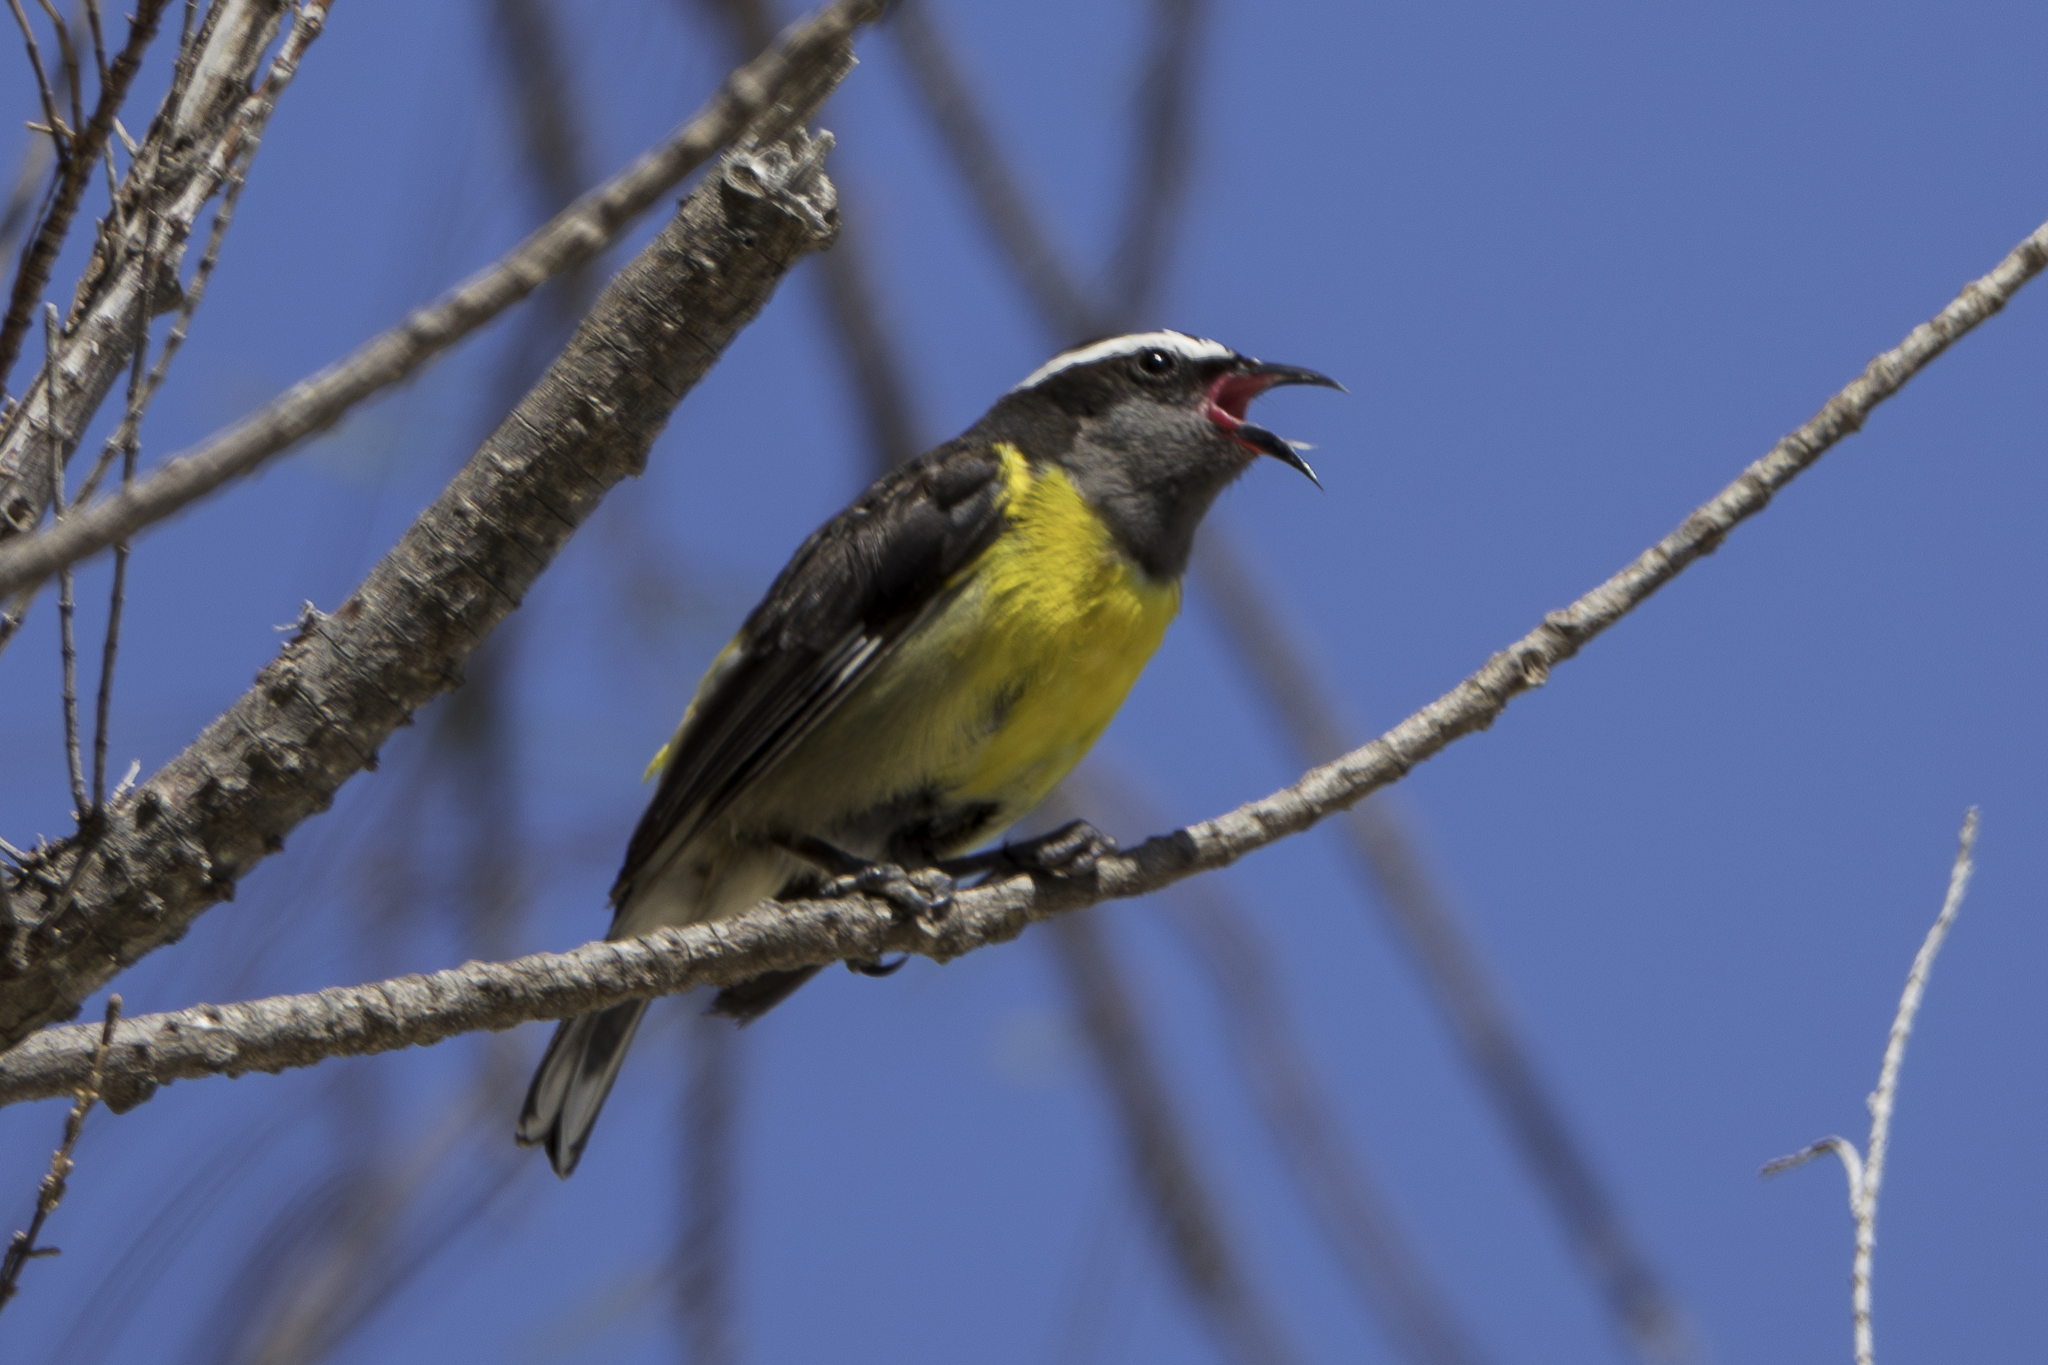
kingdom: Animalia
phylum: Chordata
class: Aves
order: Passeriformes
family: Thraupidae
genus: Coereba
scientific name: Coereba flaveola
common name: Bananaquit
